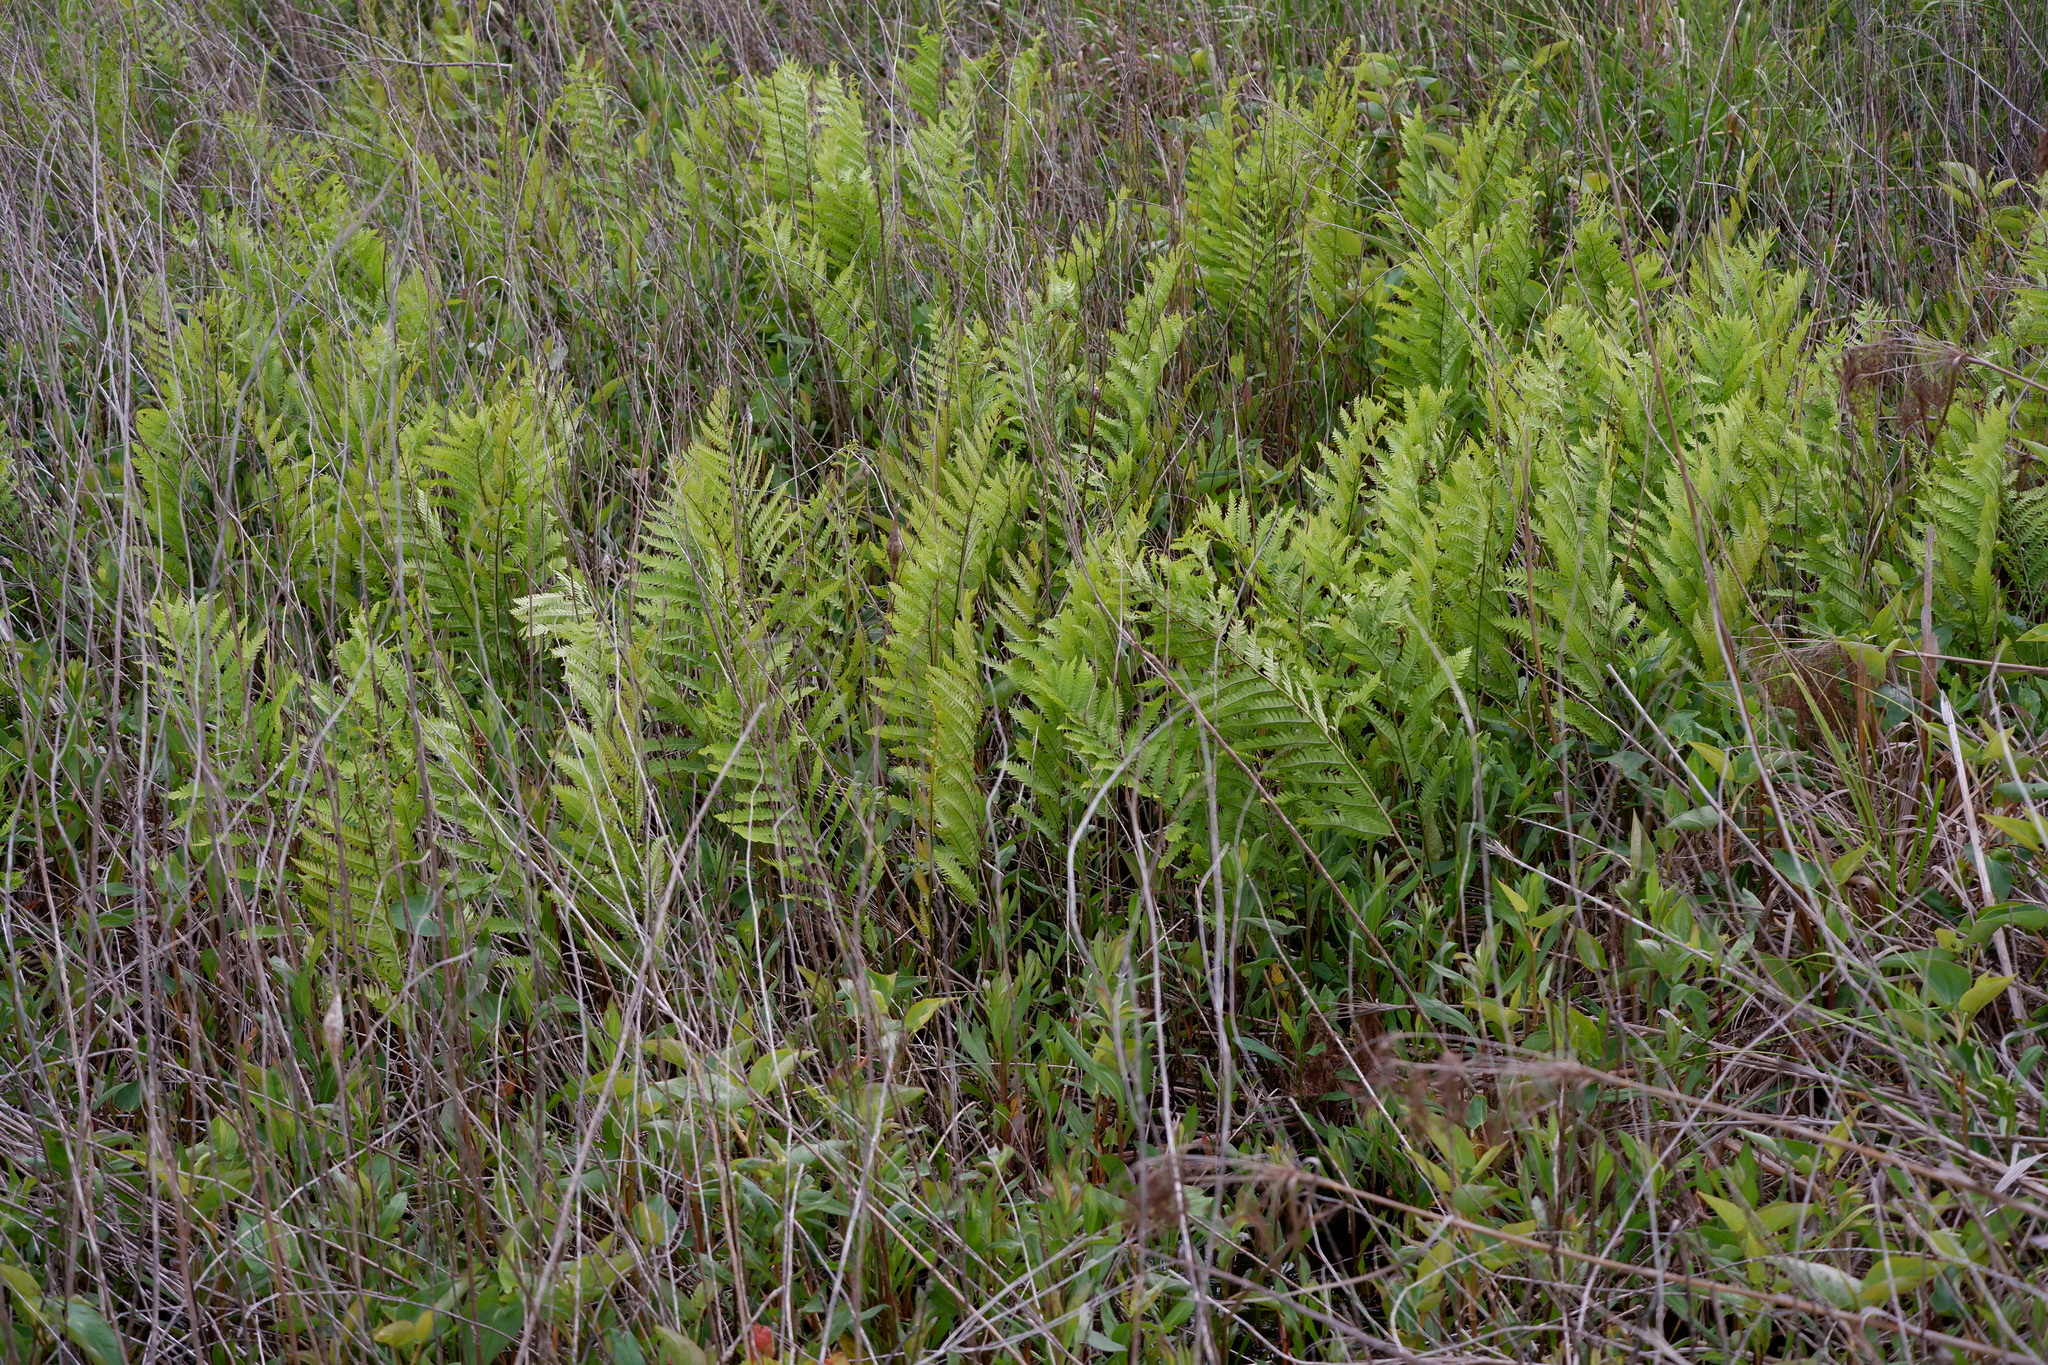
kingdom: Plantae
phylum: Tracheophyta
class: Polypodiopsida
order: Polypodiales
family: Blechnaceae
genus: Anchistea
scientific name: Anchistea virginica
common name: Virginia chain fern
